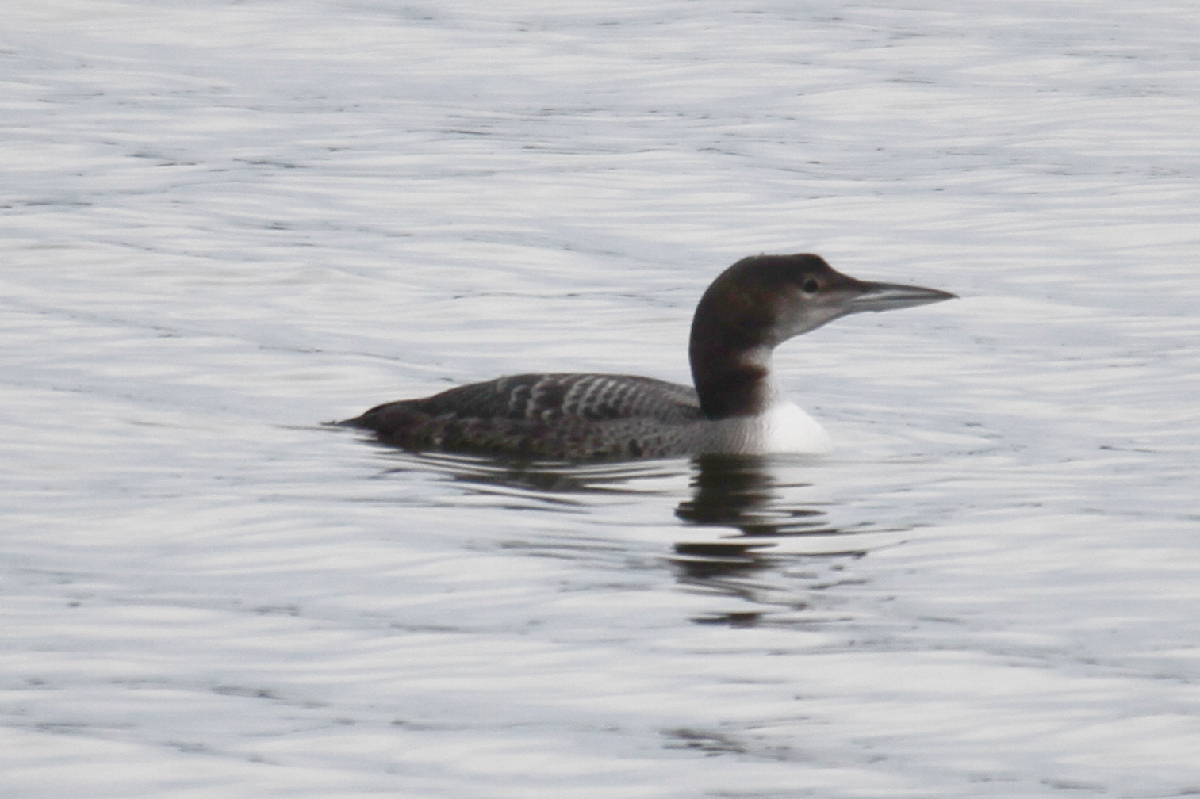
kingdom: Animalia
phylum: Chordata
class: Aves
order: Gaviiformes
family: Gaviidae
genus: Gavia
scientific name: Gavia immer
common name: Common loon
